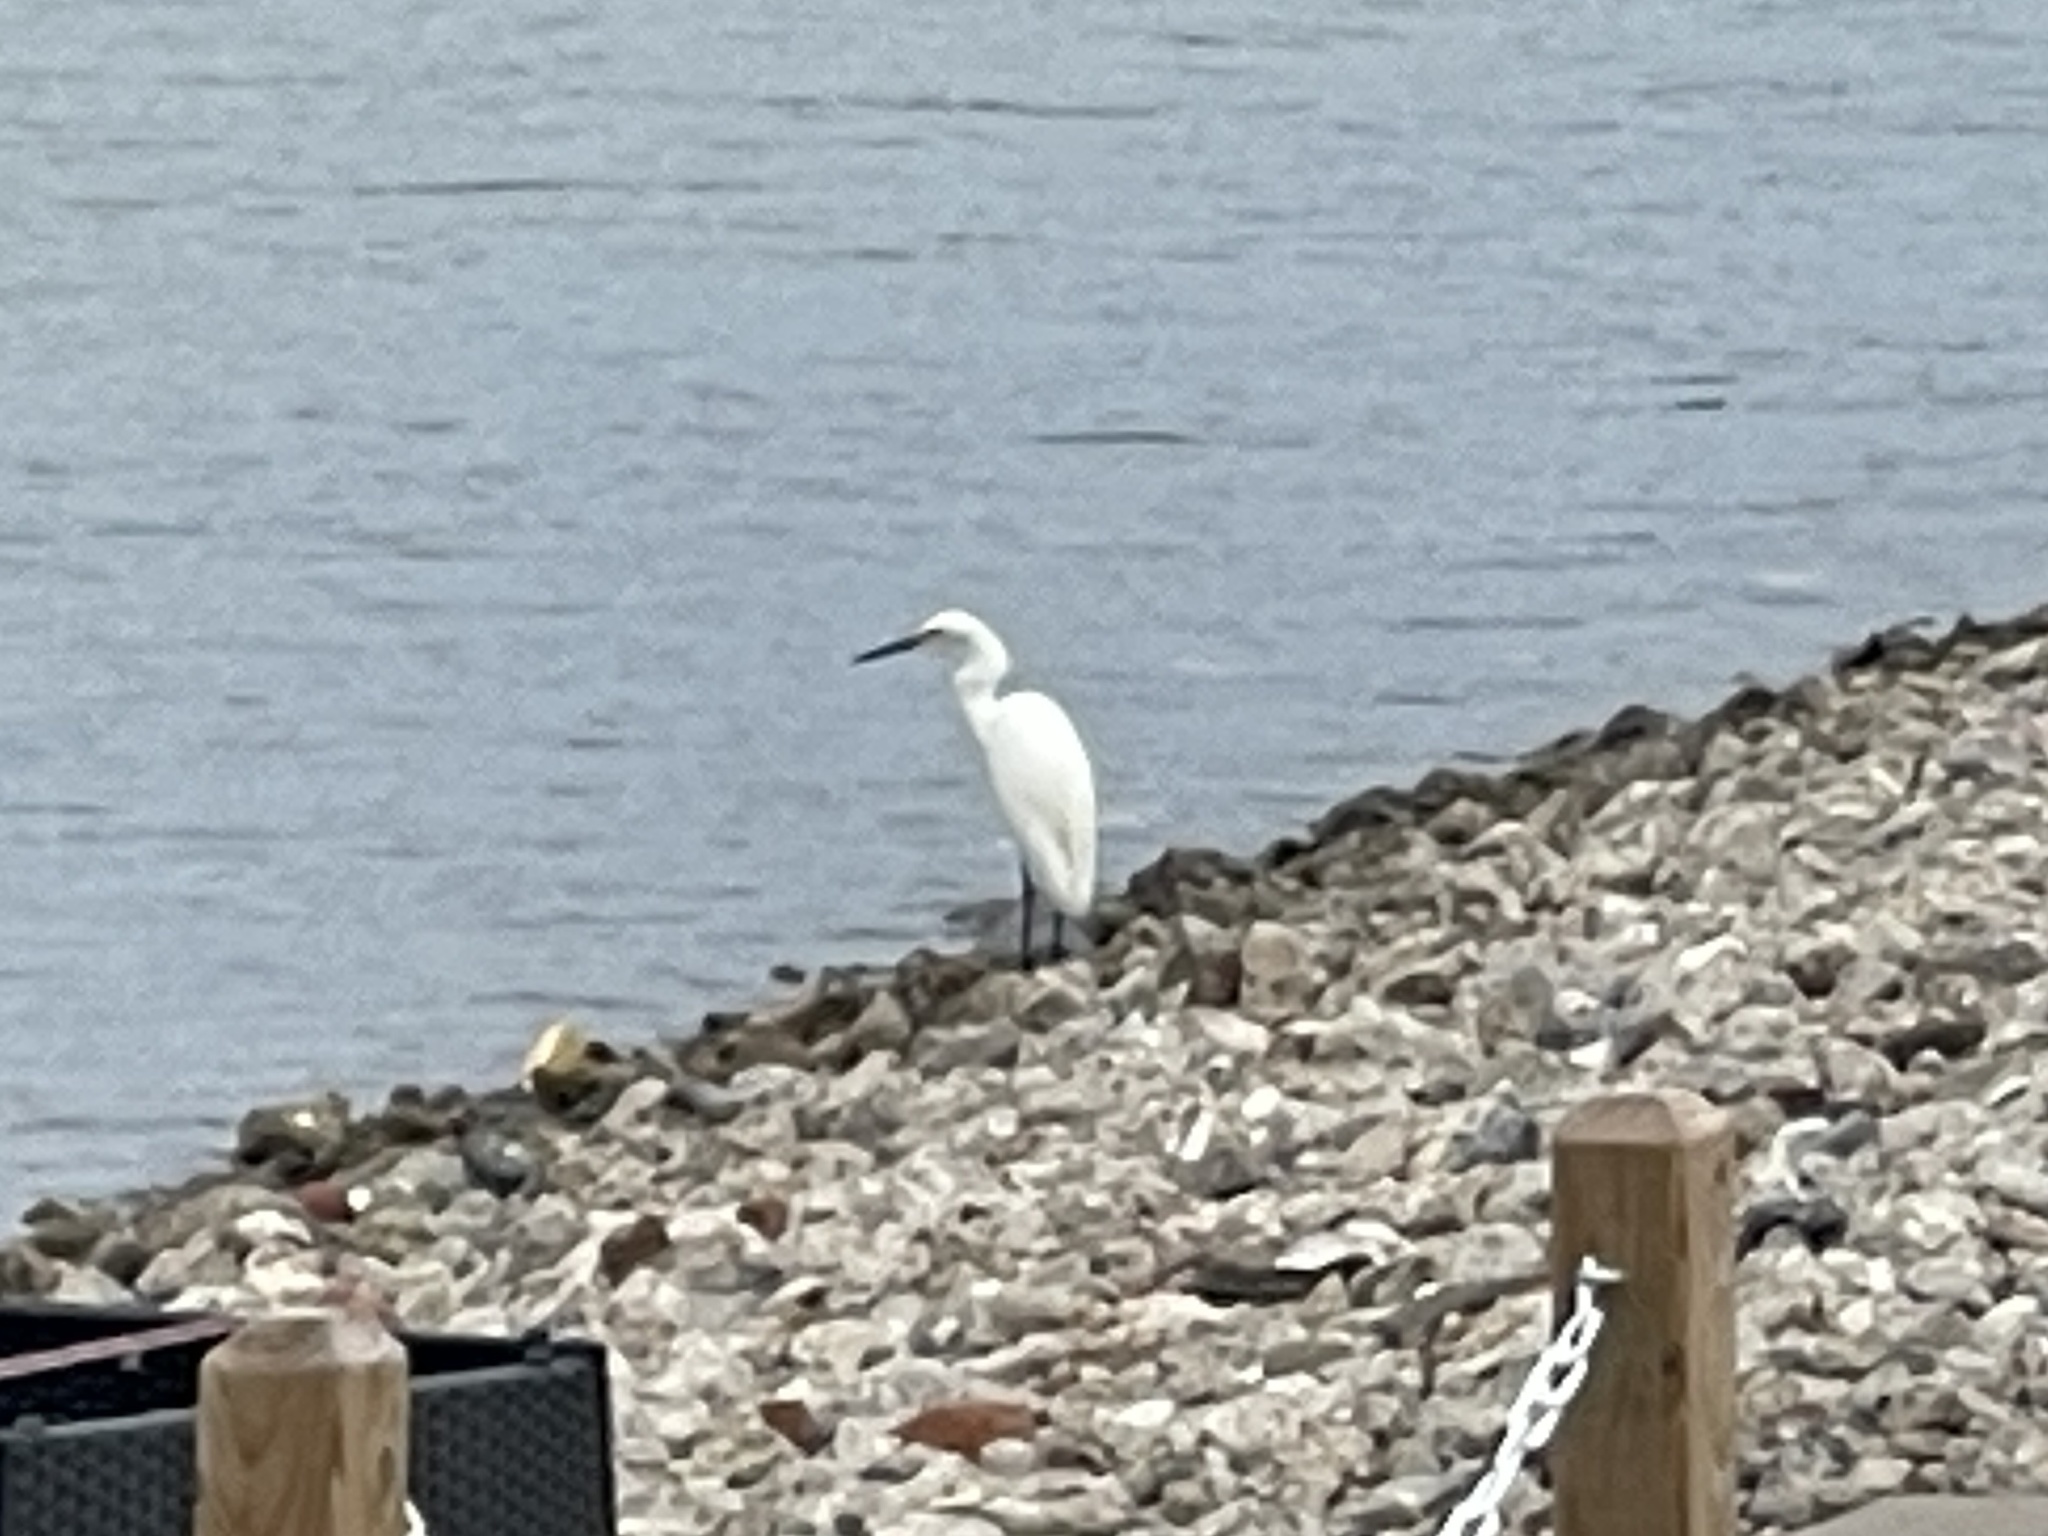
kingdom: Animalia
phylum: Chordata
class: Aves
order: Pelecaniformes
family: Ardeidae
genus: Egretta
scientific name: Egretta thula
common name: Snowy egret
